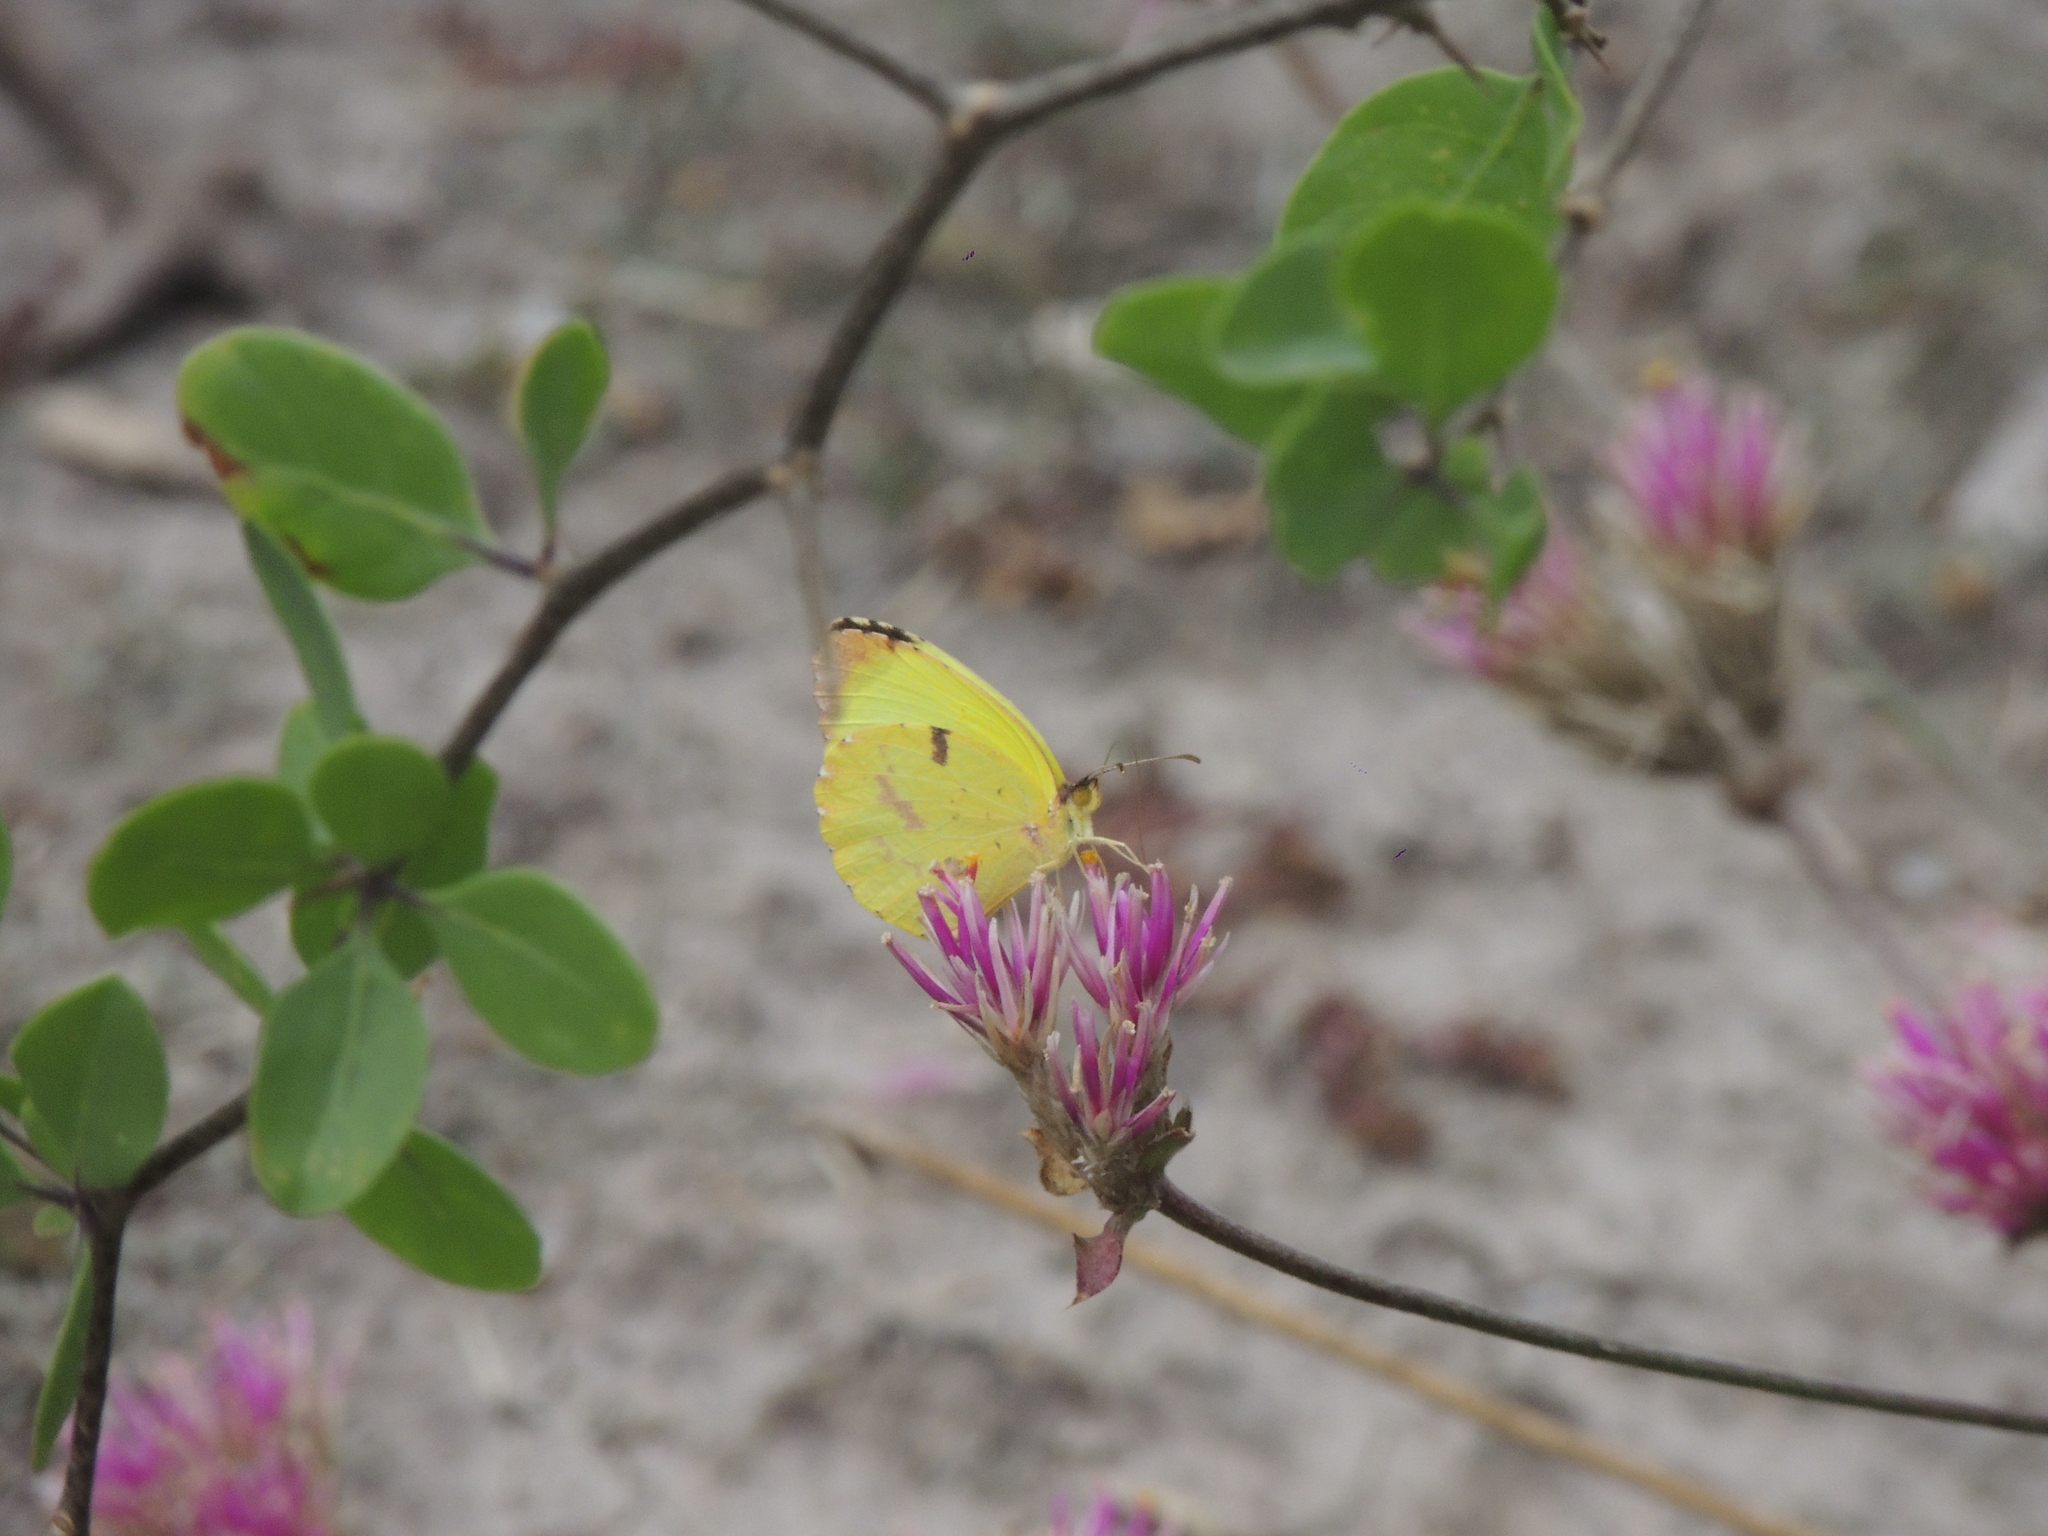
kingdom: Animalia
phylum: Arthropoda
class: Insecta
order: Lepidoptera
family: Pieridae
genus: Teriocolias
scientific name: Teriocolias
